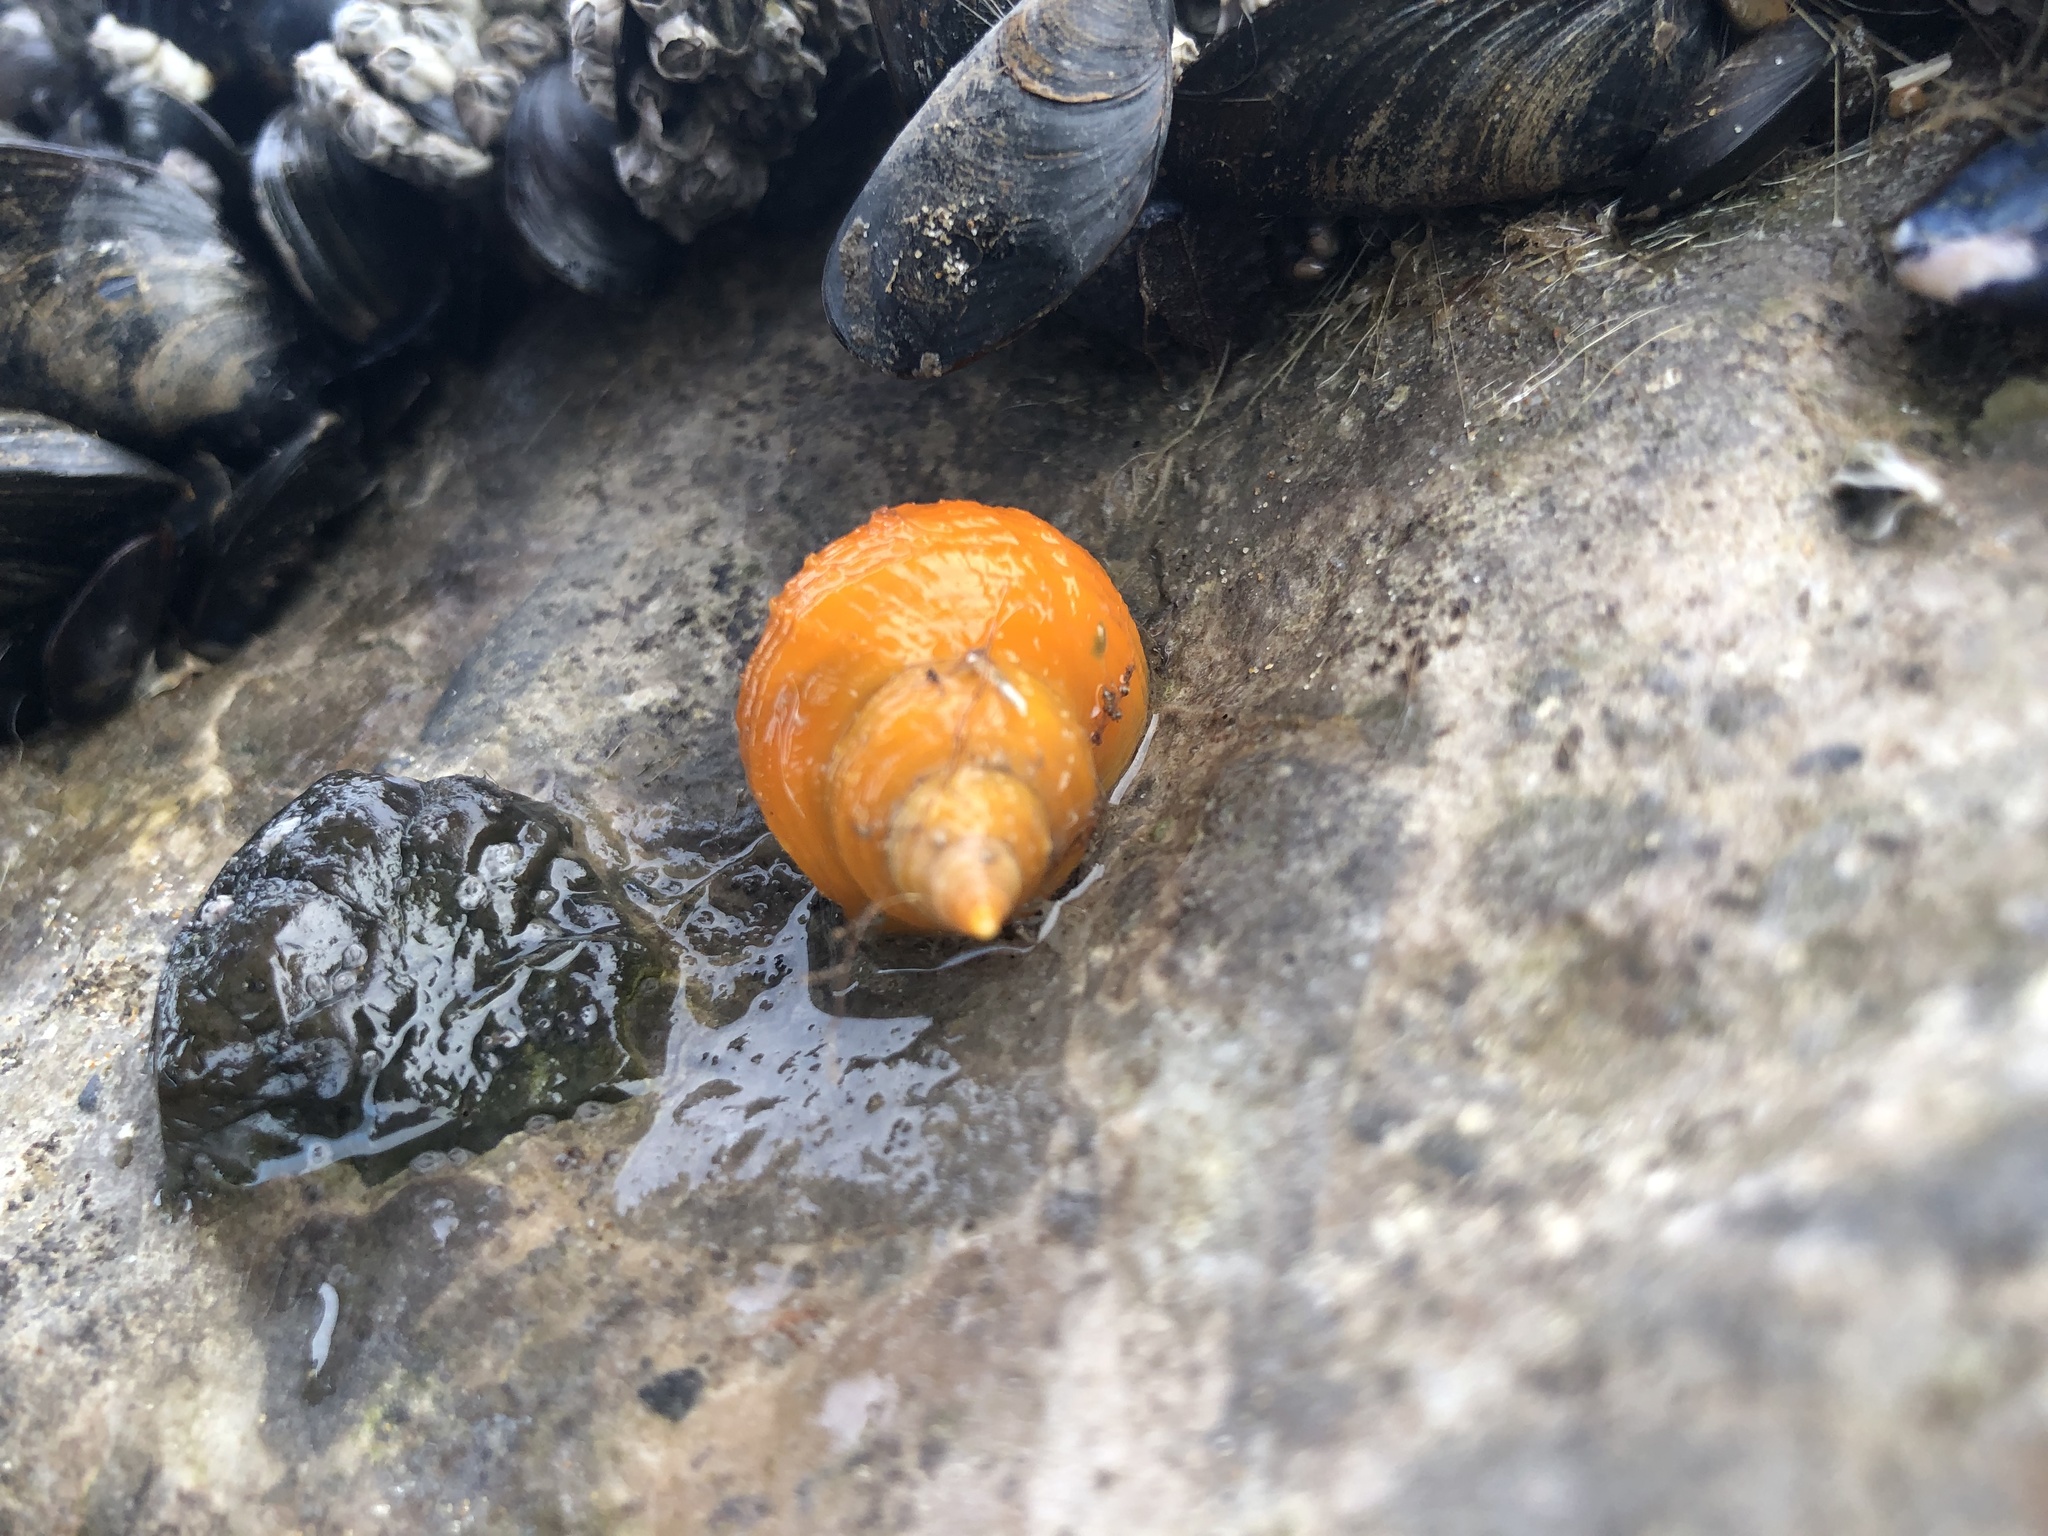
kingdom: Animalia
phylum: Mollusca
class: Gastropoda
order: Neogastropoda
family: Muricidae
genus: Nucella
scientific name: Nucella lapillus
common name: Dog whelk
